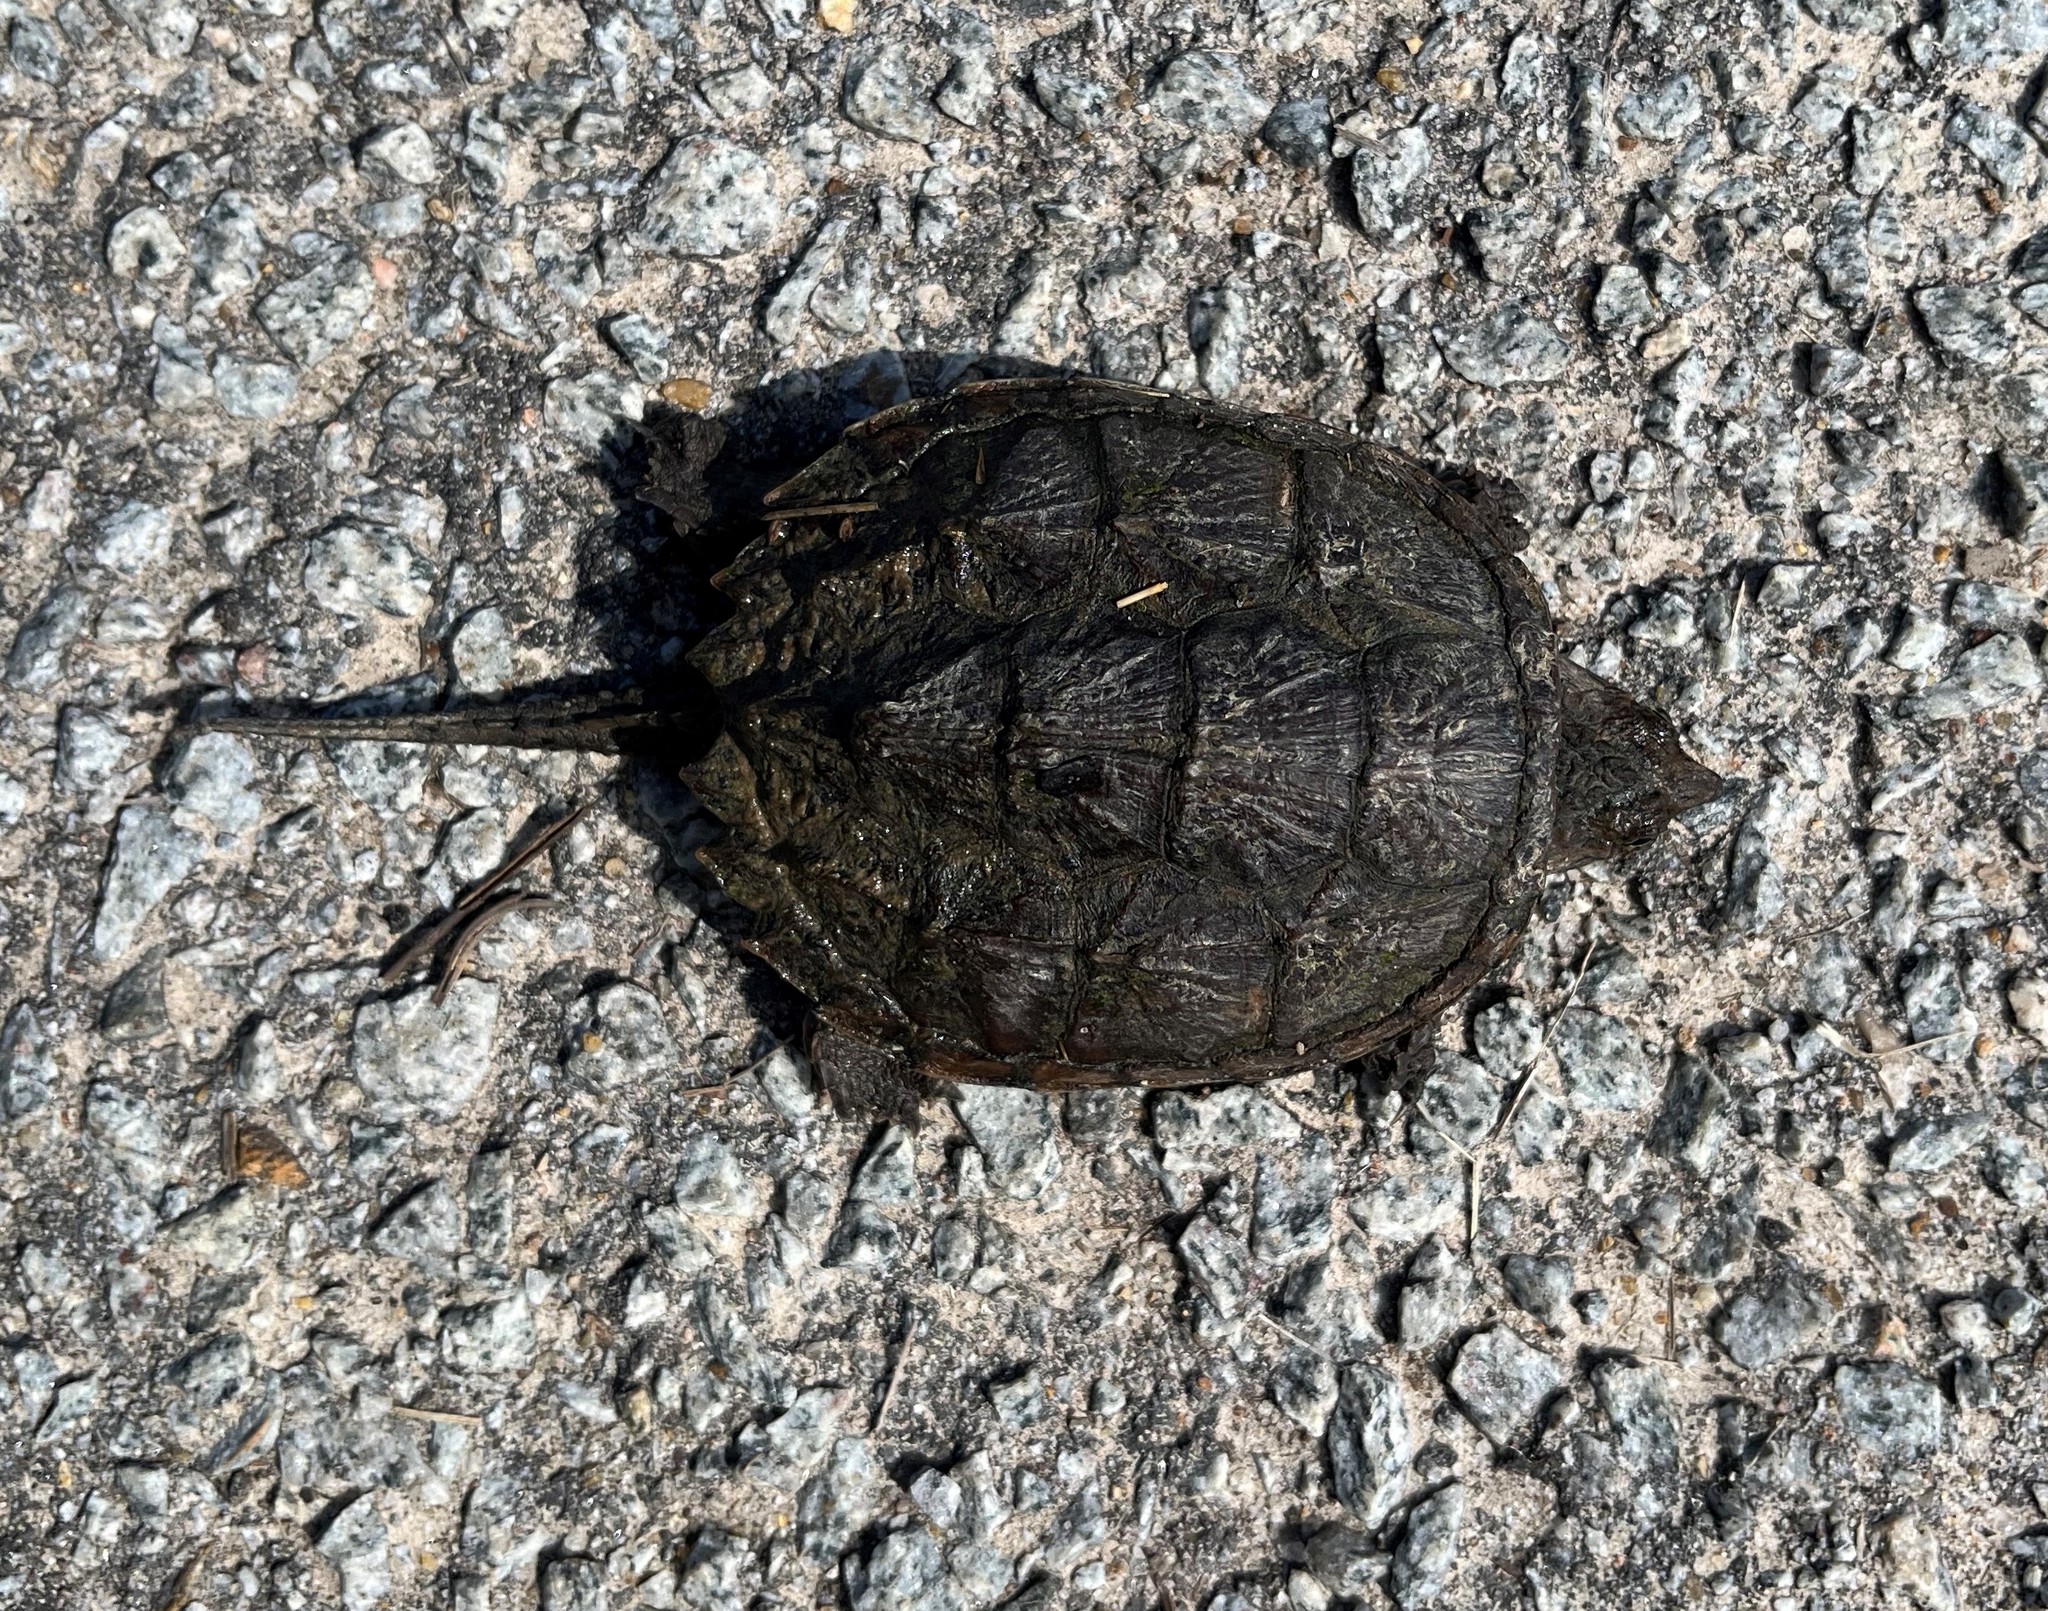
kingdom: Animalia
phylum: Chordata
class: Testudines
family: Chelydridae
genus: Chelydra
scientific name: Chelydra serpentina
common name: Common snapping turtle
